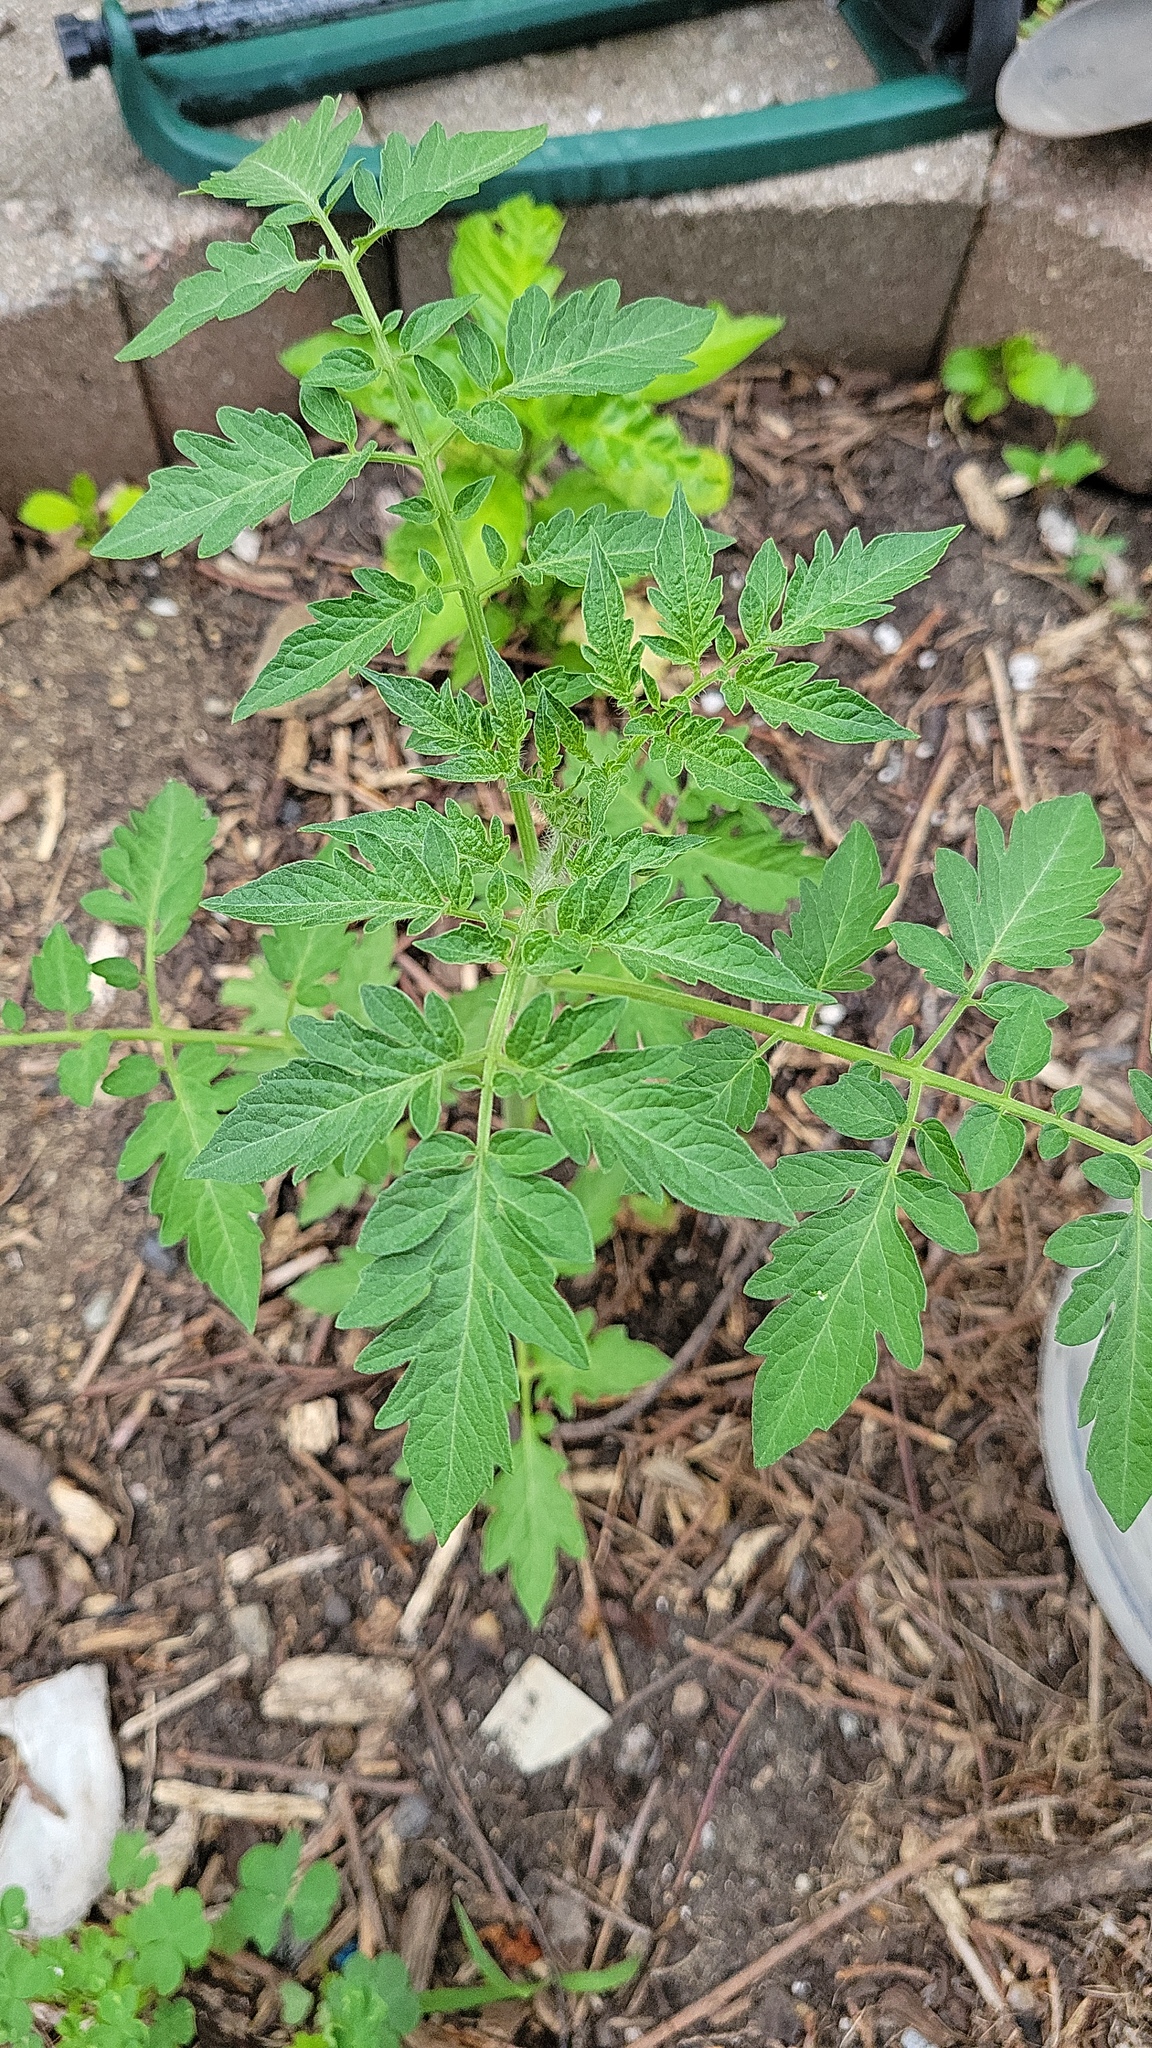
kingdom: Plantae
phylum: Tracheophyta
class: Magnoliopsida
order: Solanales
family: Solanaceae
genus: Solanum
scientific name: Solanum lycopersicum
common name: Garden tomato
